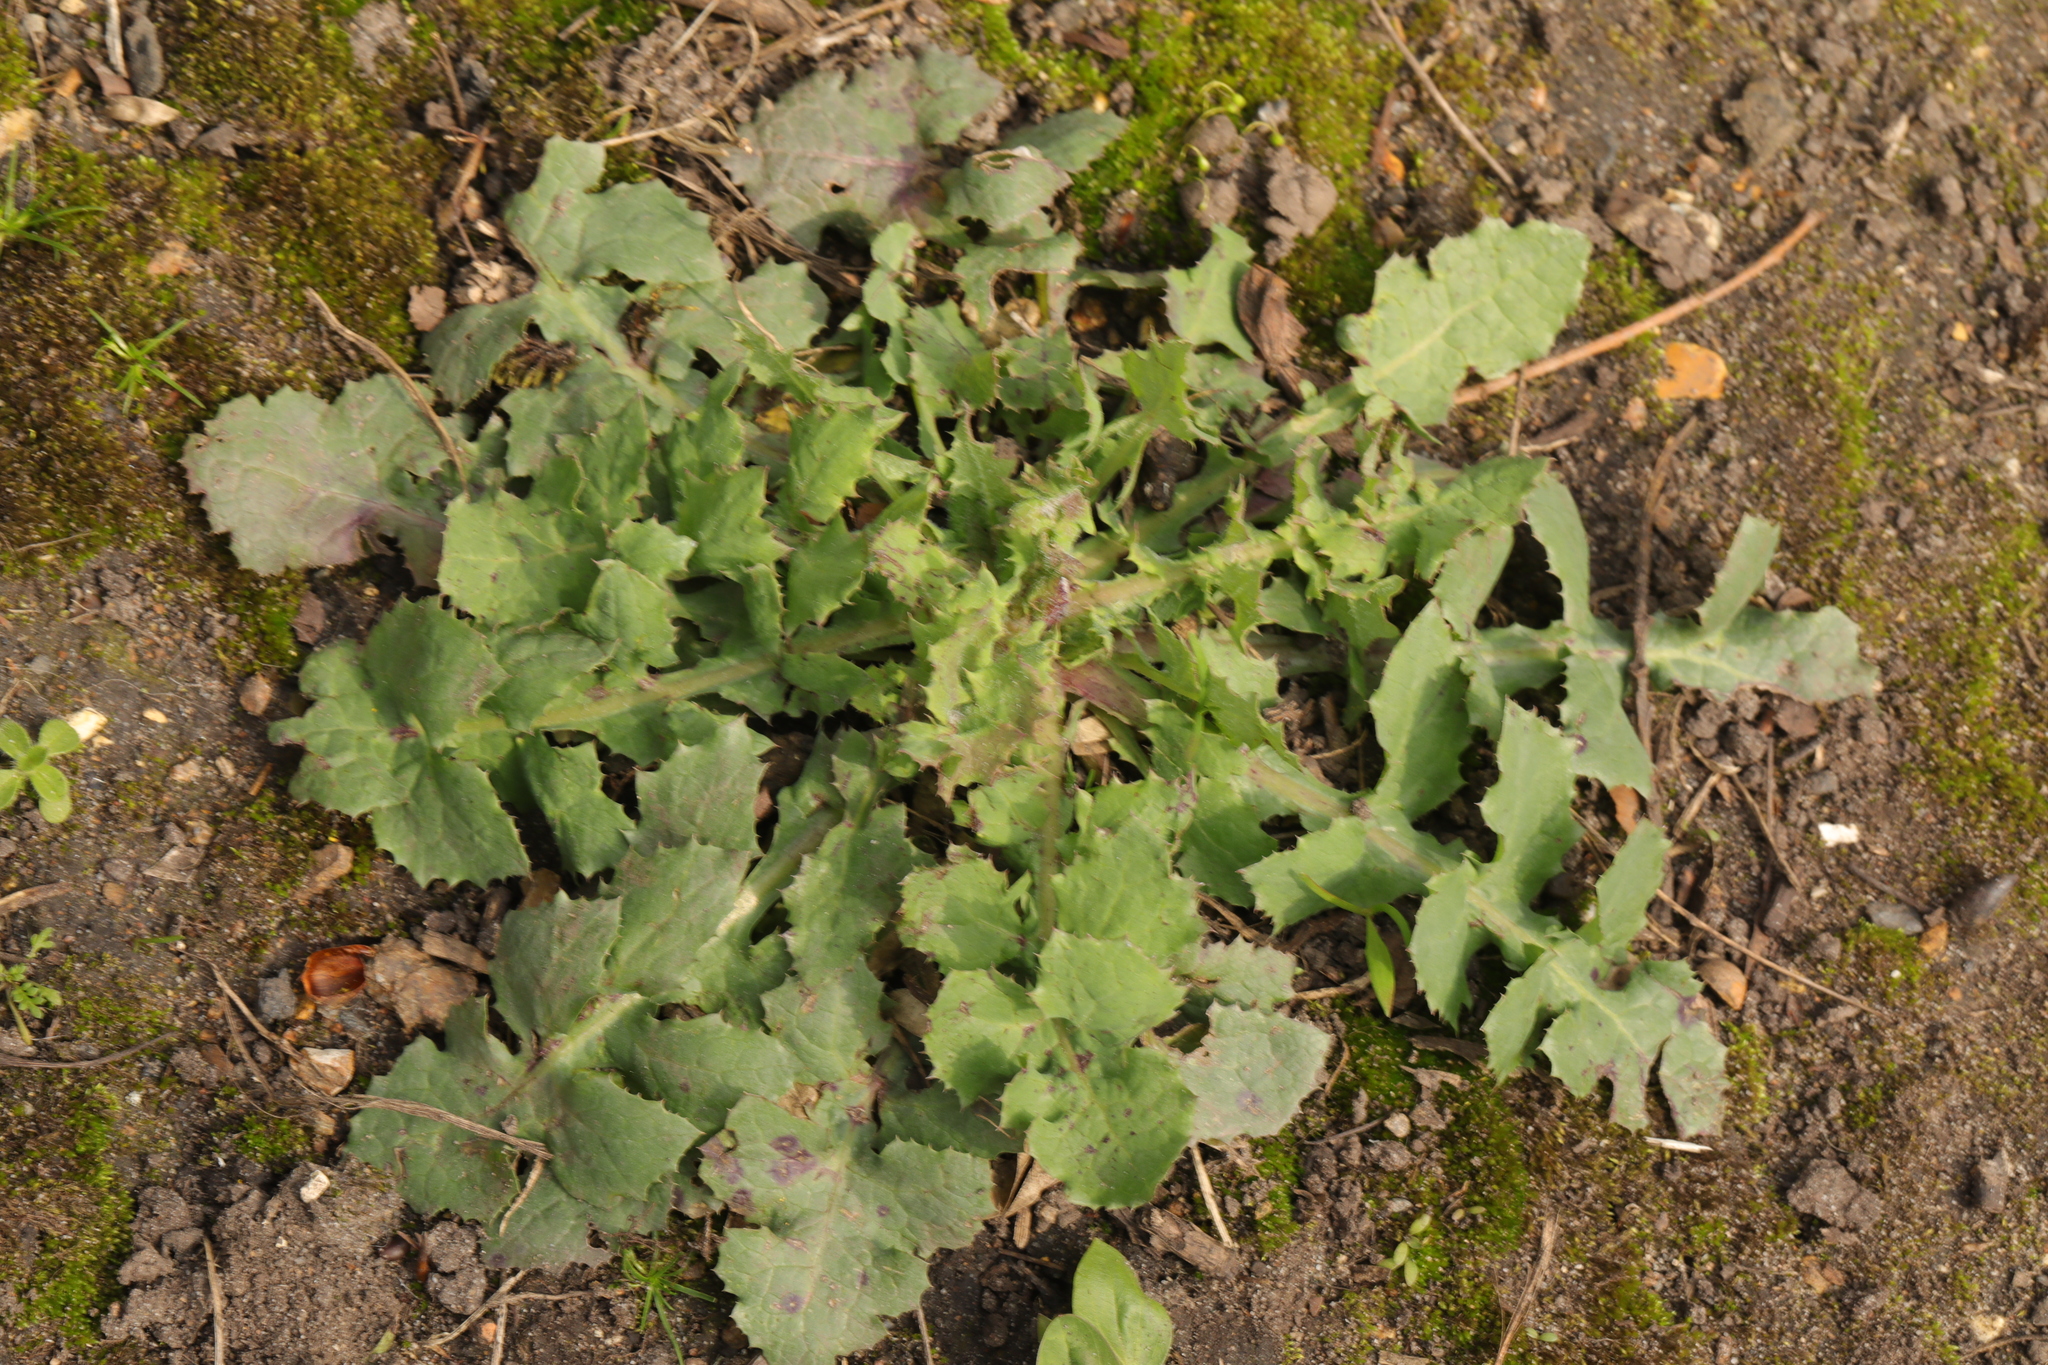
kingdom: Plantae
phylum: Tracheophyta
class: Magnoliopsida
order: Asterales
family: Asteraceae
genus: Sonchus
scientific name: Sonchus oleraceus
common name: Common sowthistle
